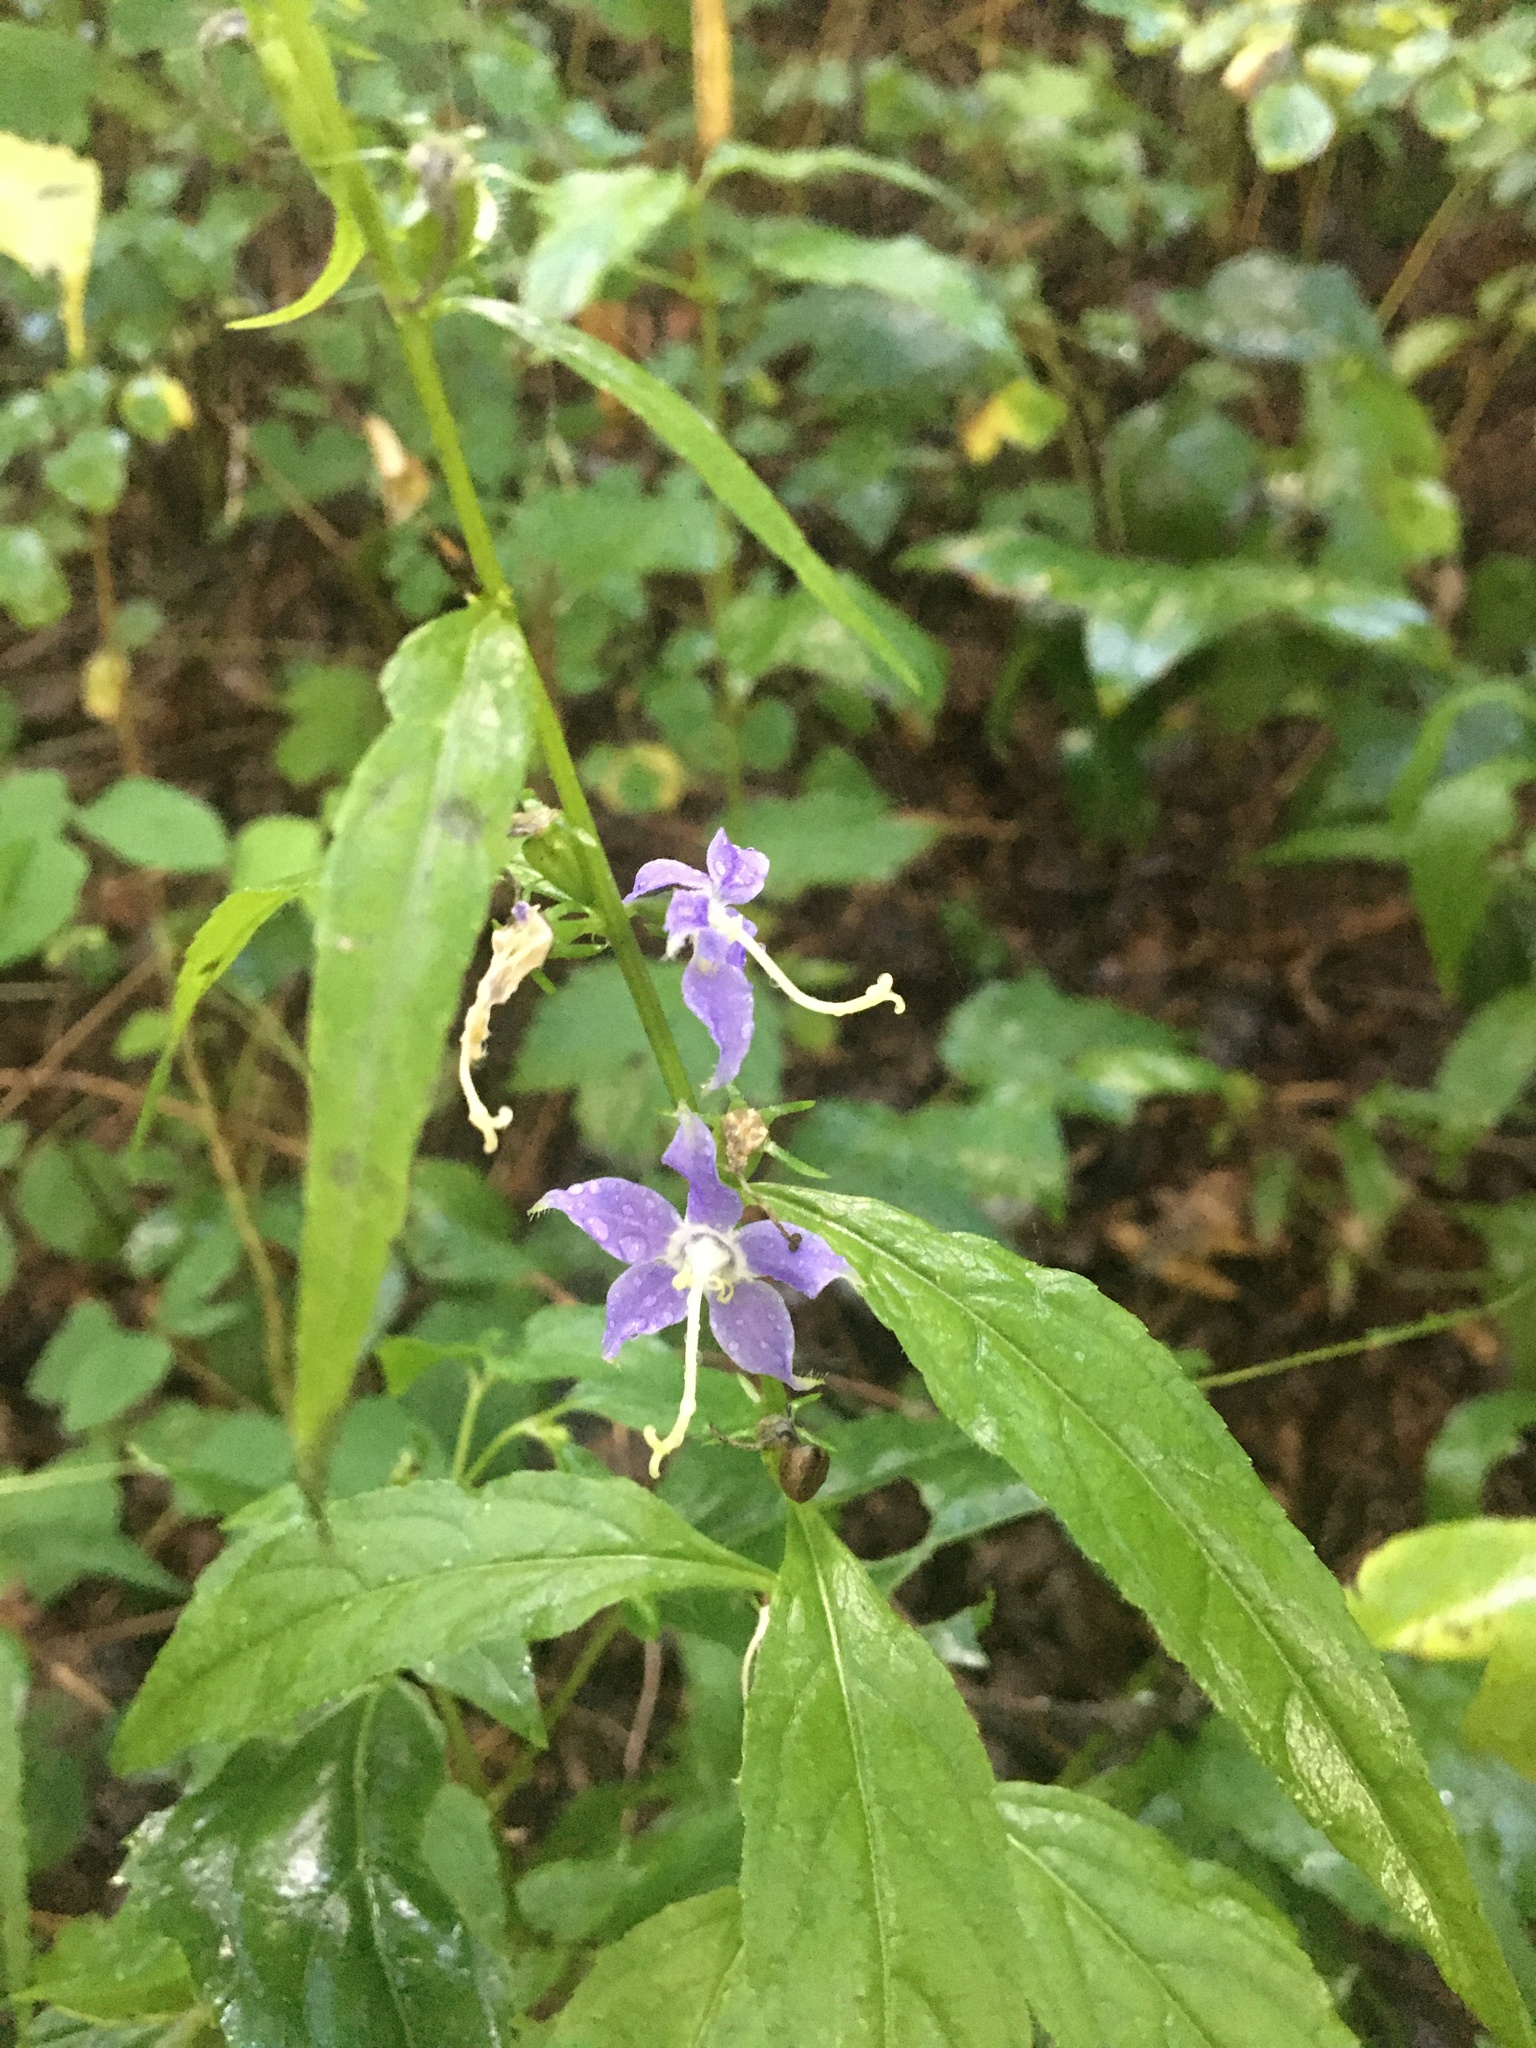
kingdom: Plantae
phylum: Tracheophyta
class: Magnoliopsida
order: Asterales
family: Campanulaceae
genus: Campanulastrum
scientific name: Campanulastrum americanum
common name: American bellflower
